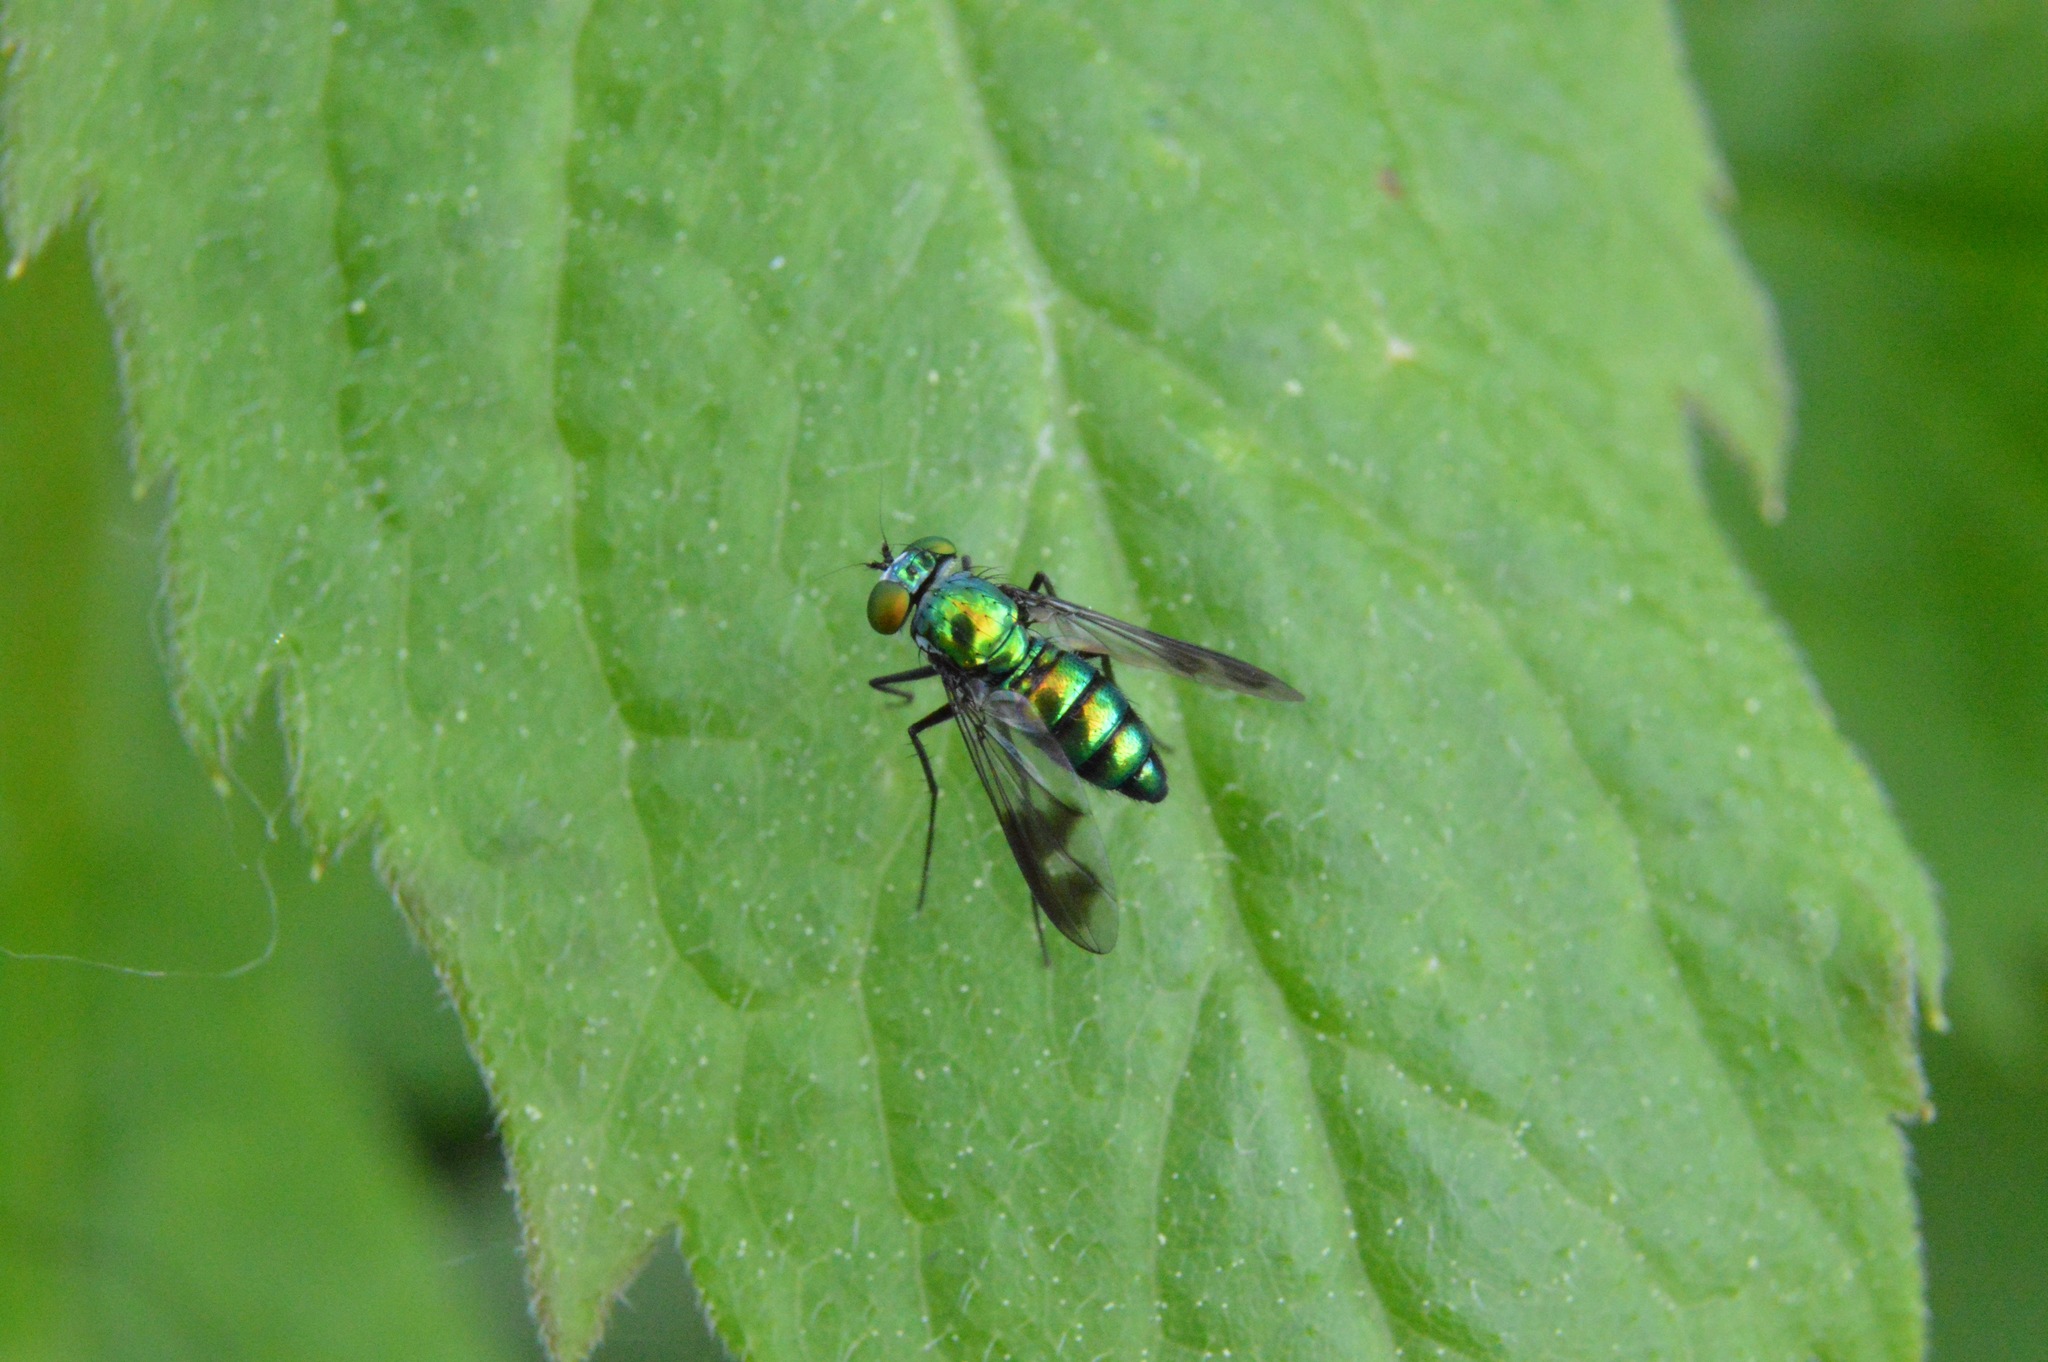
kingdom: Animalia
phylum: Arthropoda
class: Insecta
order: Diptera
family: Dolichopodidae
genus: Condylostylus
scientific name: Condylostylus patibulatus
